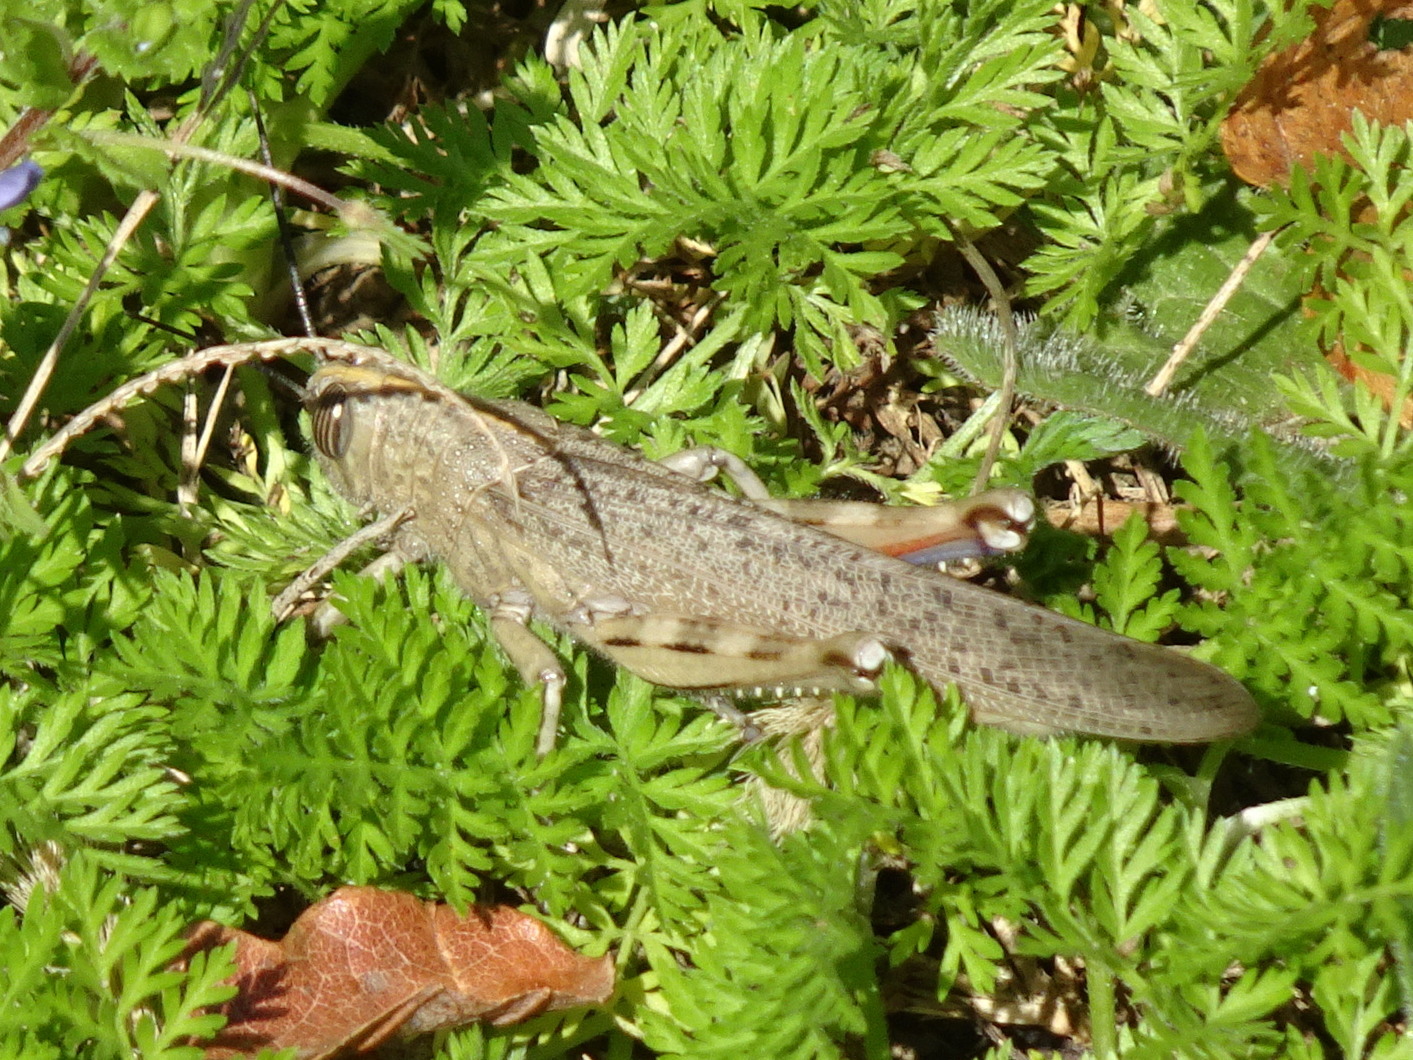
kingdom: Animalia
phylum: Arthropoda
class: Insecta
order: Orthoptera
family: Acrididae
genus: Anacridium
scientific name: Anacridium aegyptium
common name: Egyptian grasshopper
